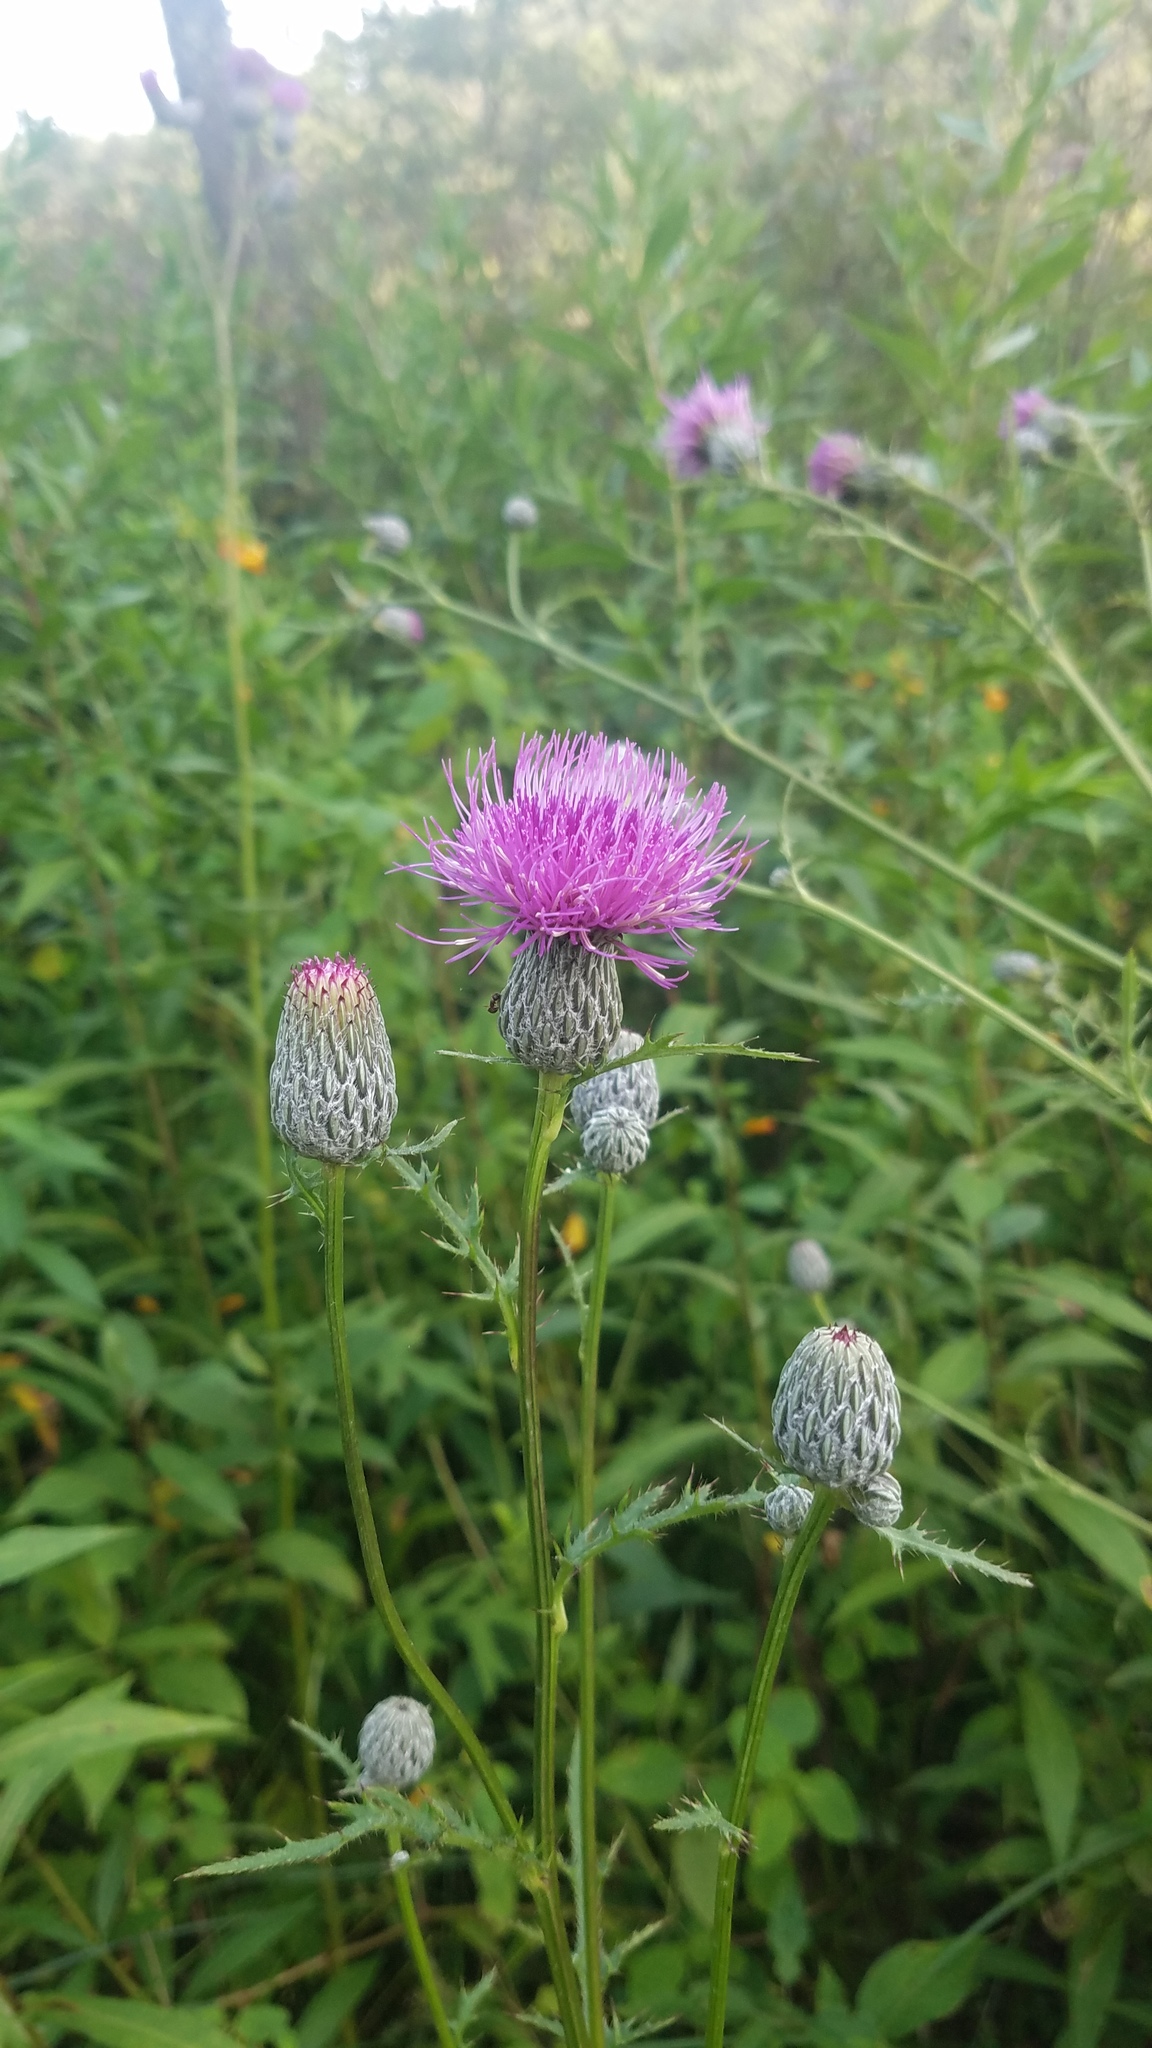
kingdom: Plantae
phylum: Tracheophyta
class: Magnoliopsida
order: Asterales
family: Asteraceae
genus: Cirsium
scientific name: Cirsium muticum
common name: Dunce-nettle
